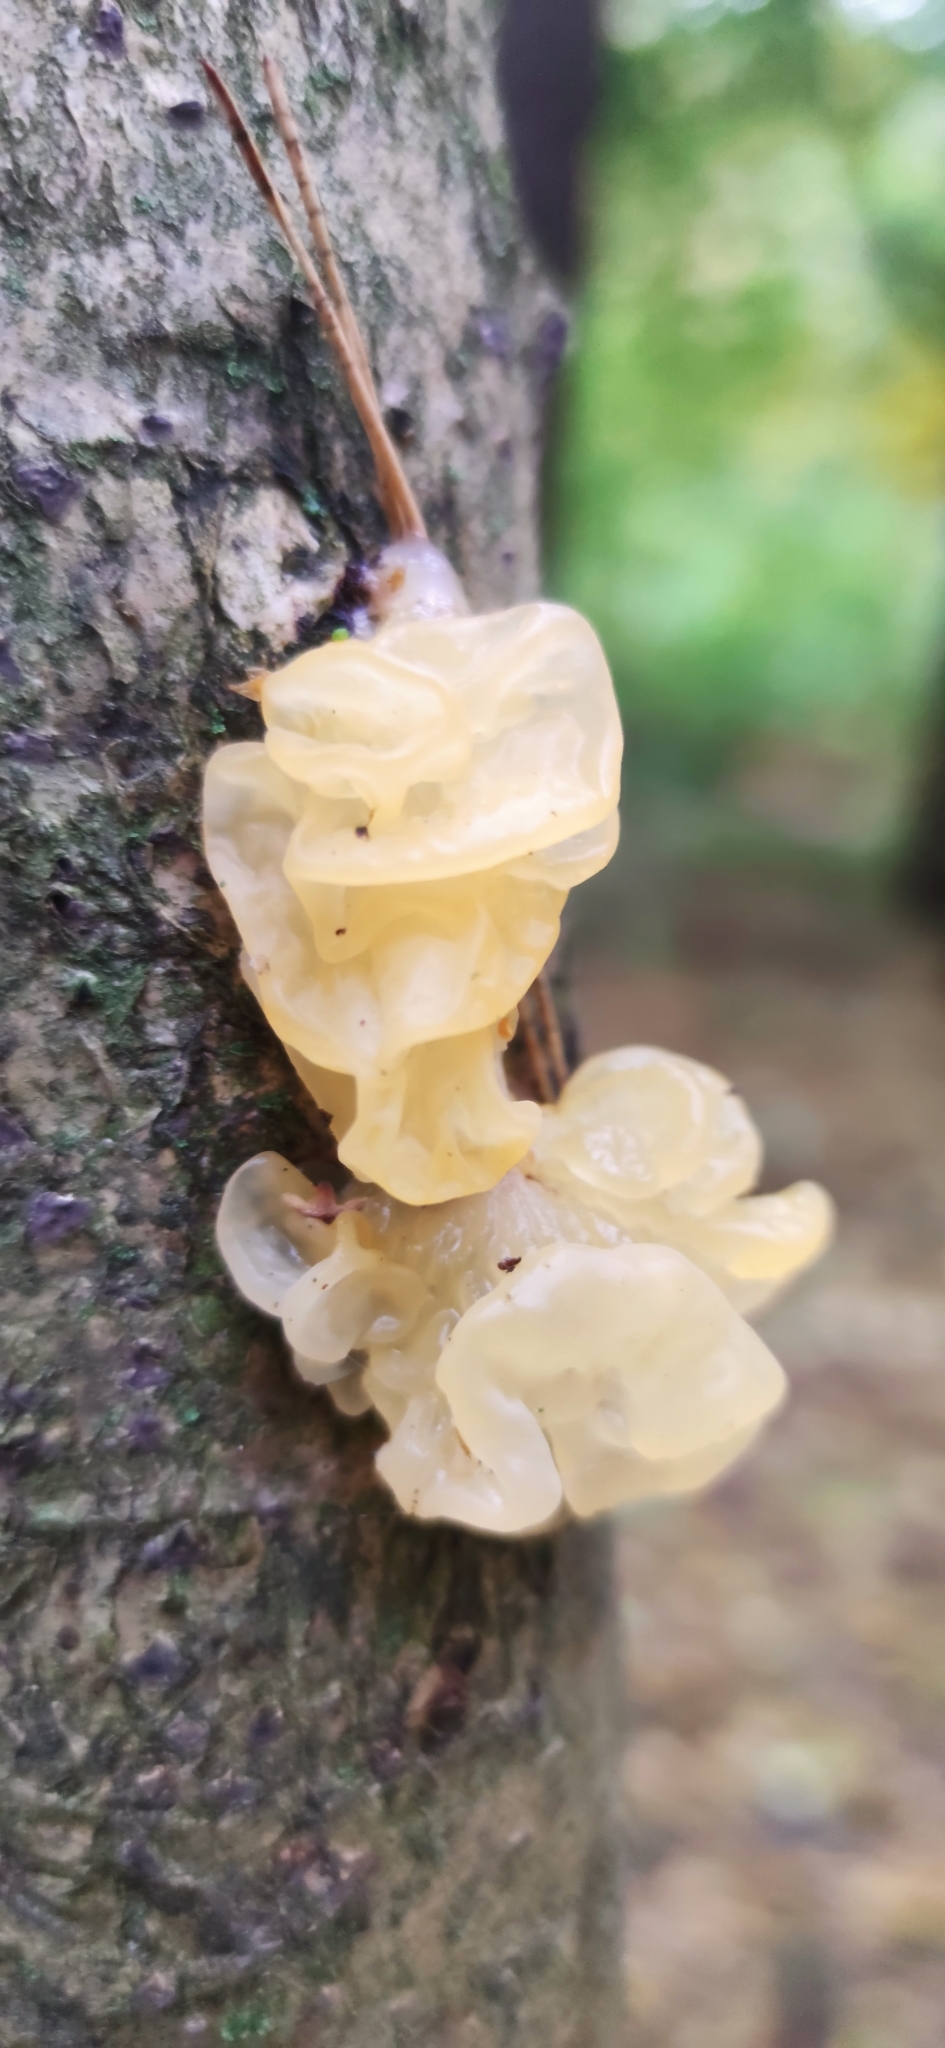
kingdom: Fungi
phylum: Basidiomycota
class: Tremellomycetes
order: Tremellales
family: Tremellaceae
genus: Tremella
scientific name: Tremella mesenterica
